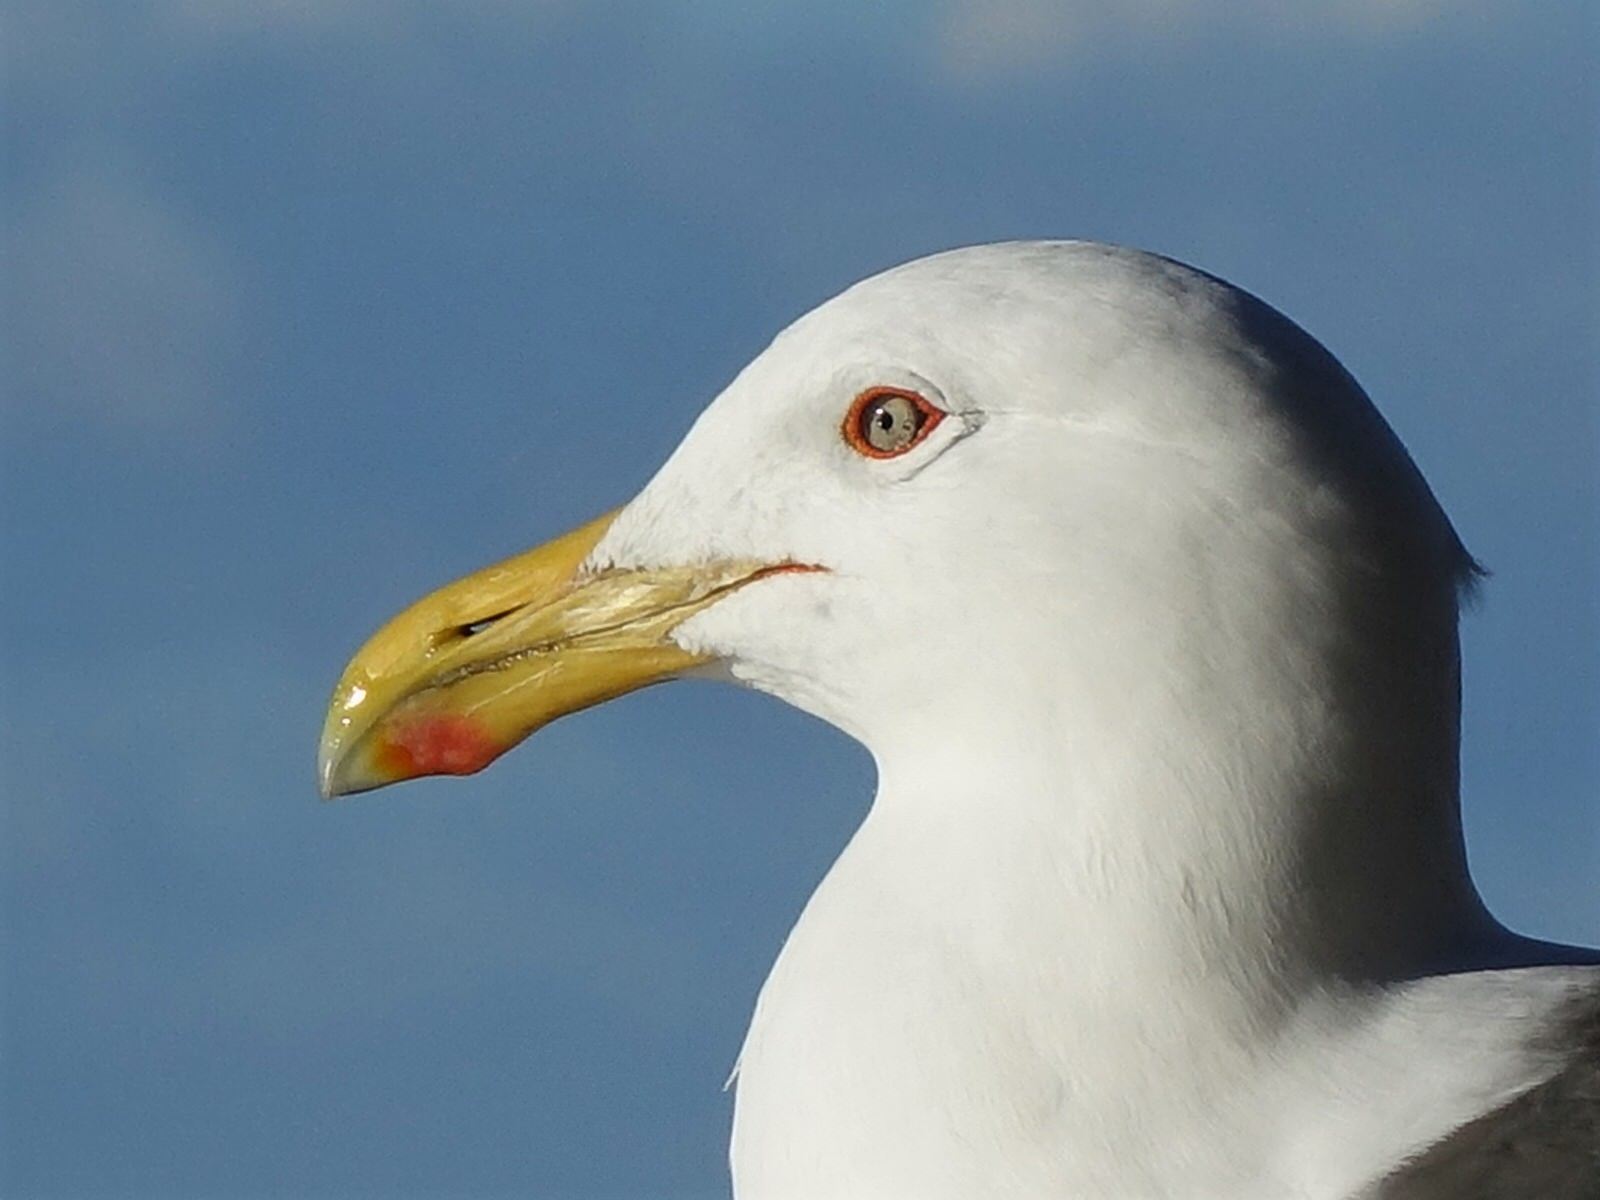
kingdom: Animalia
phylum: Chordata
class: Aves
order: Charadriiformes
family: Laridae
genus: Larus
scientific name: Larus dominicanus
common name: Kelp gull
